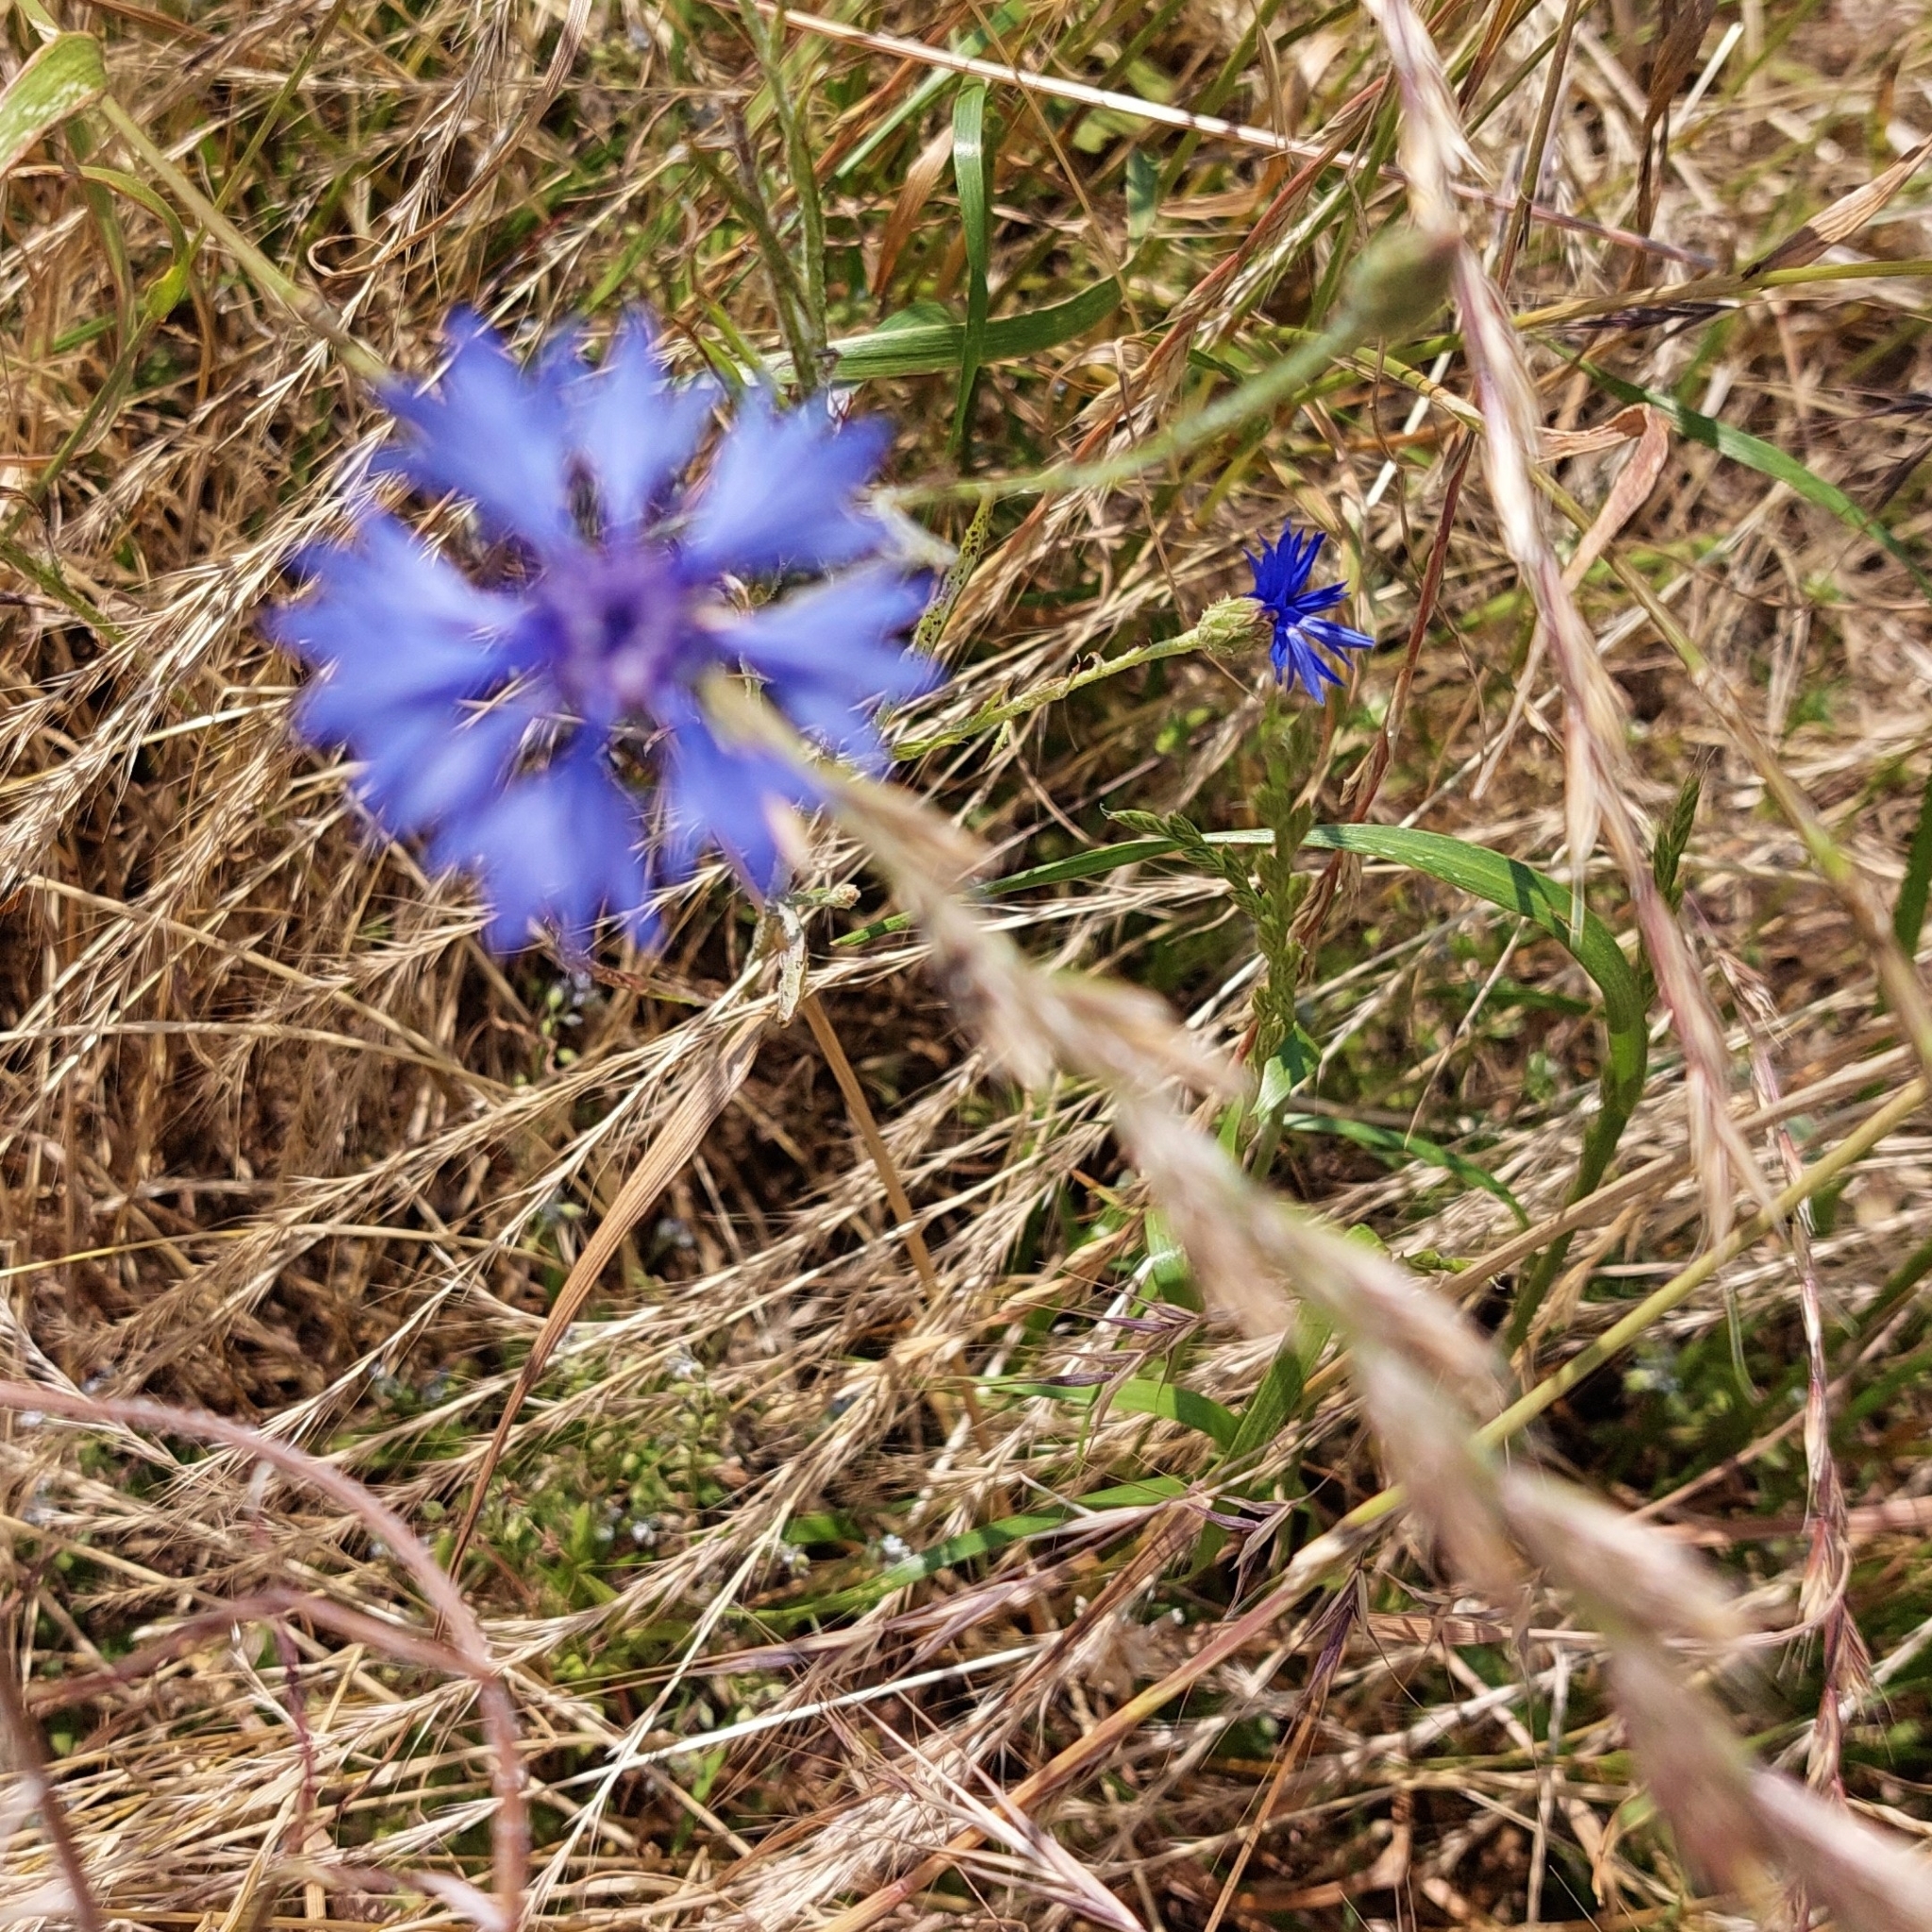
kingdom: Plantae
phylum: Tracheophyta
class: Magnoliopsida
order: Asterales
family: Asteraceae
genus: Centaurea
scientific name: Centaurea cyanus
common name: Cornflower
